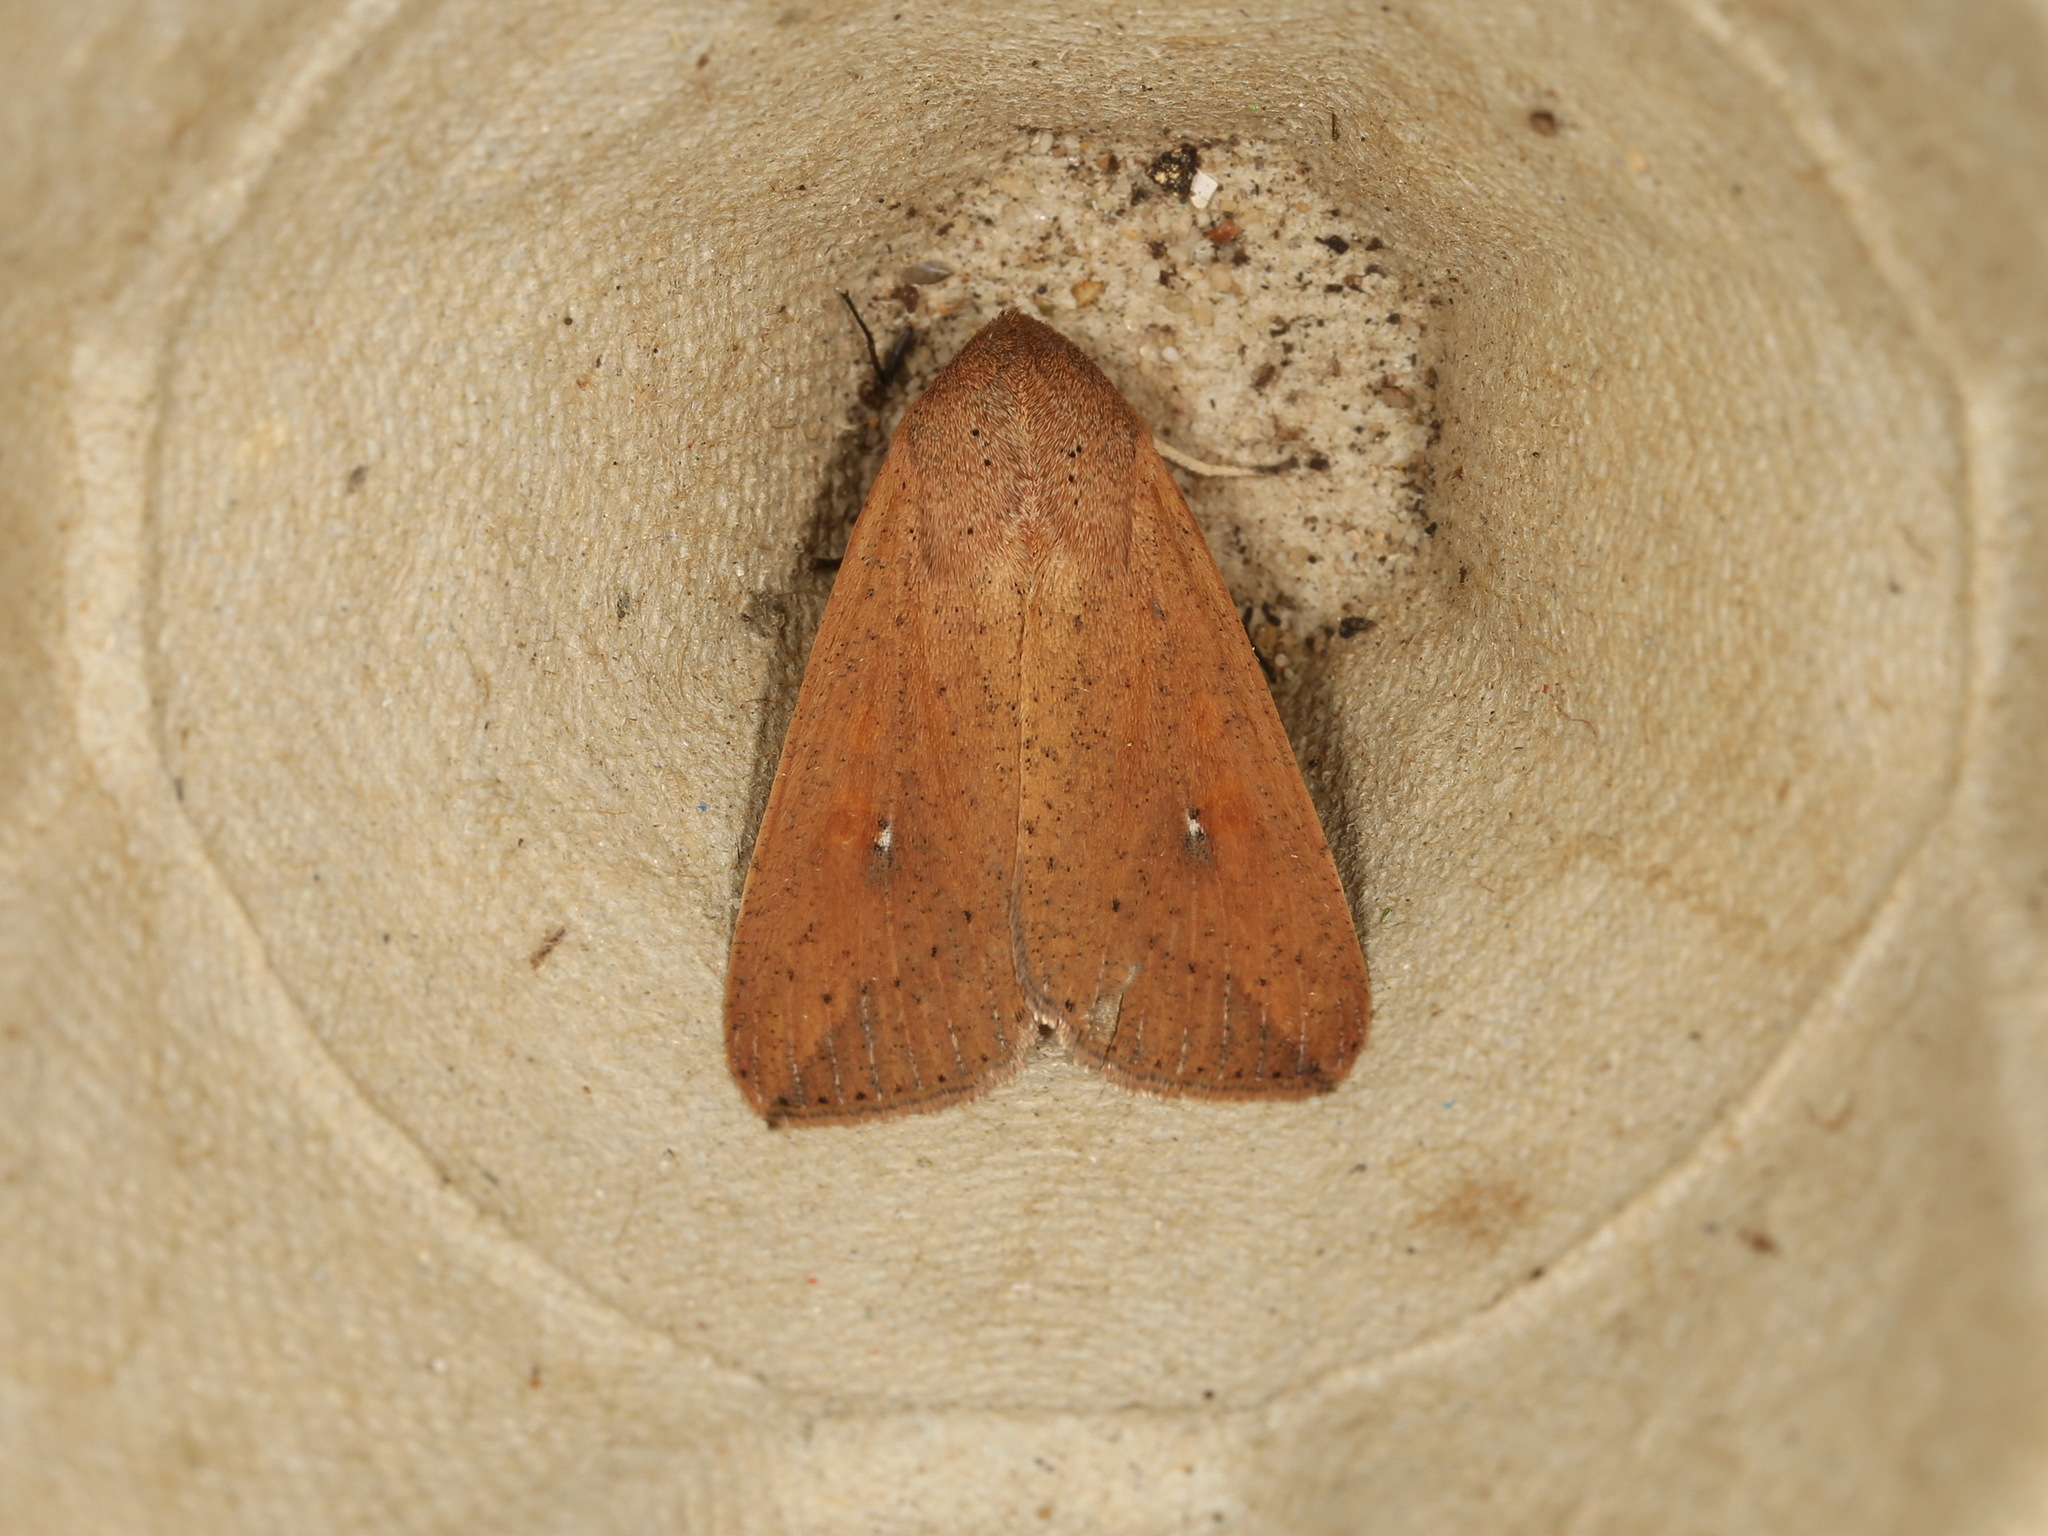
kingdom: Animalia
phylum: Arthropoda
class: Insecta
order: Lepidoptera
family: Noctuidae
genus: Mythimna
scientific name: Mythimna convecta
